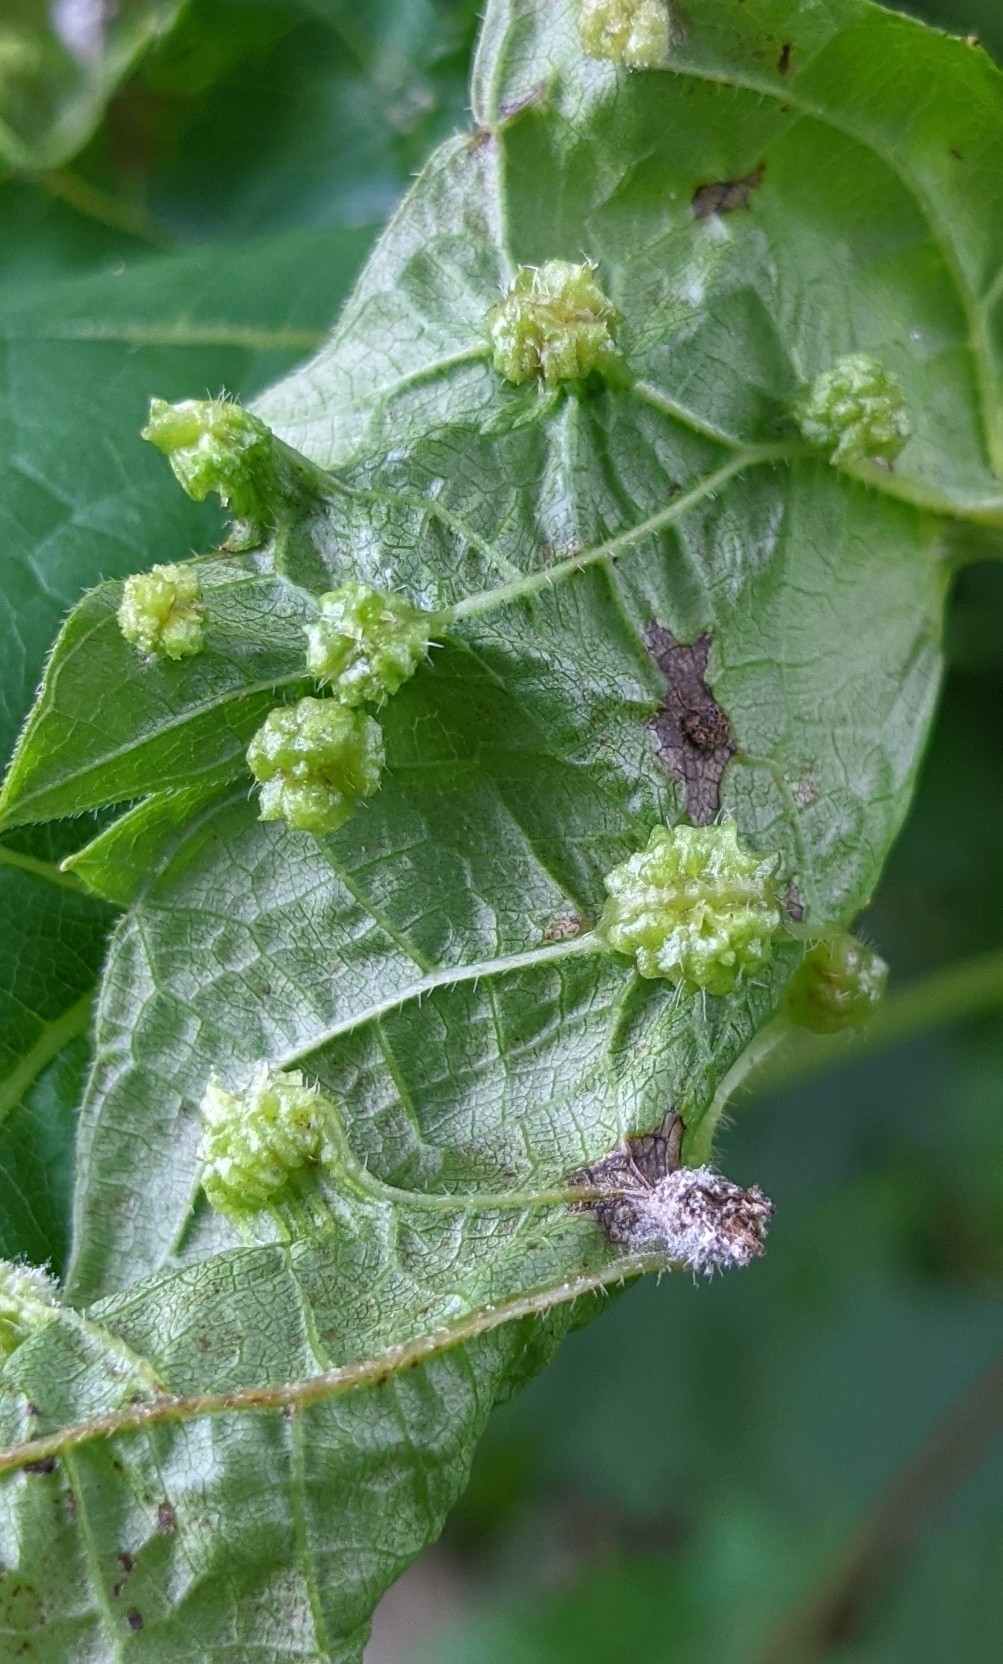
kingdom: Animalia
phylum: Arthropoda
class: Insecta
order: Hemiptera
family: Phylloxeridae
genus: Daktulosphaira
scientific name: Daktulosphaira vitifoliae
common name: Grape phylloxera
